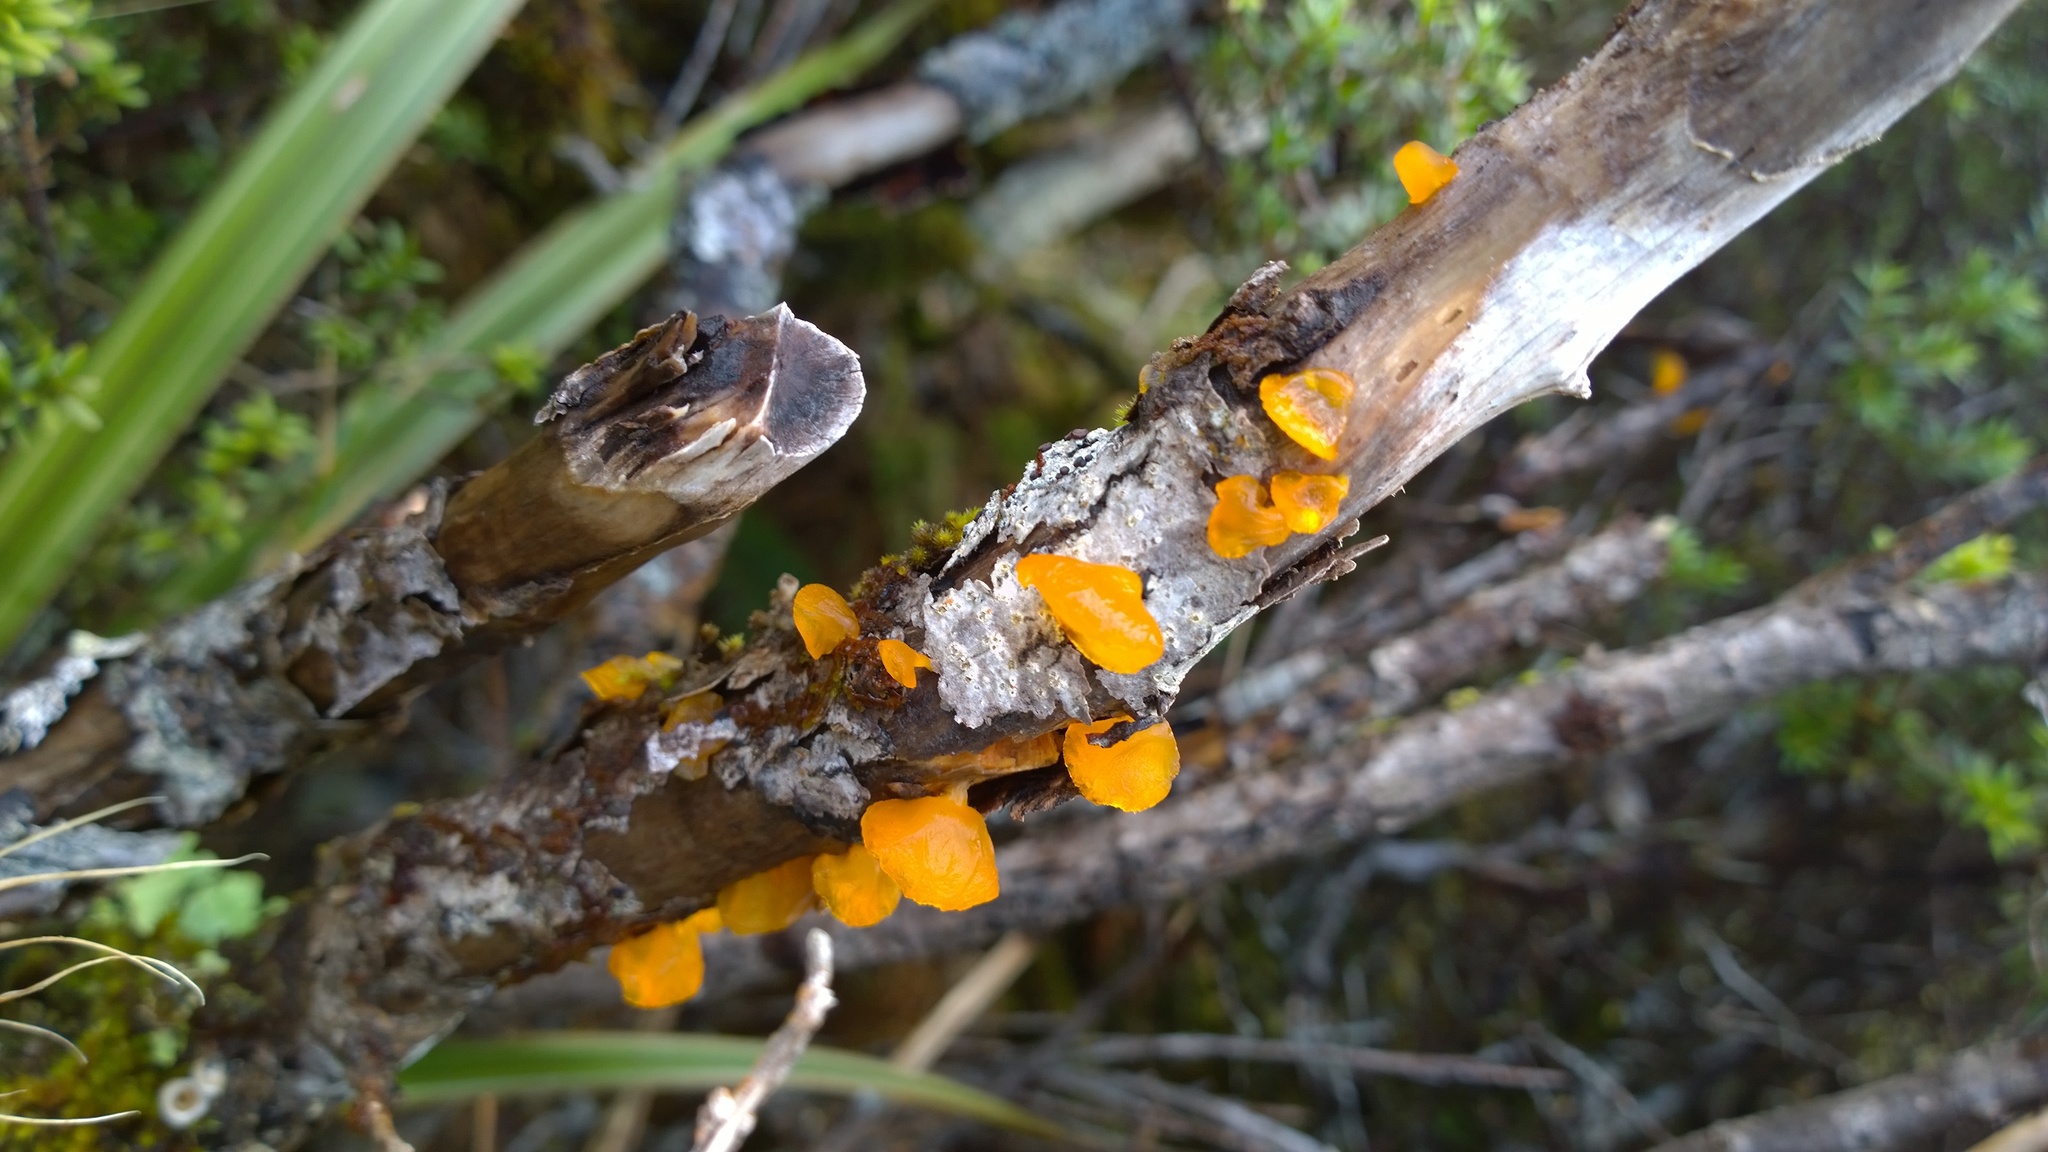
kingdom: Fungi
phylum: Basidiomycota
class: Dacrymycetes
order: Dacrymycetales
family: Dacrymycetaceae
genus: Heterotextus
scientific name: Heterotextus miltinus
